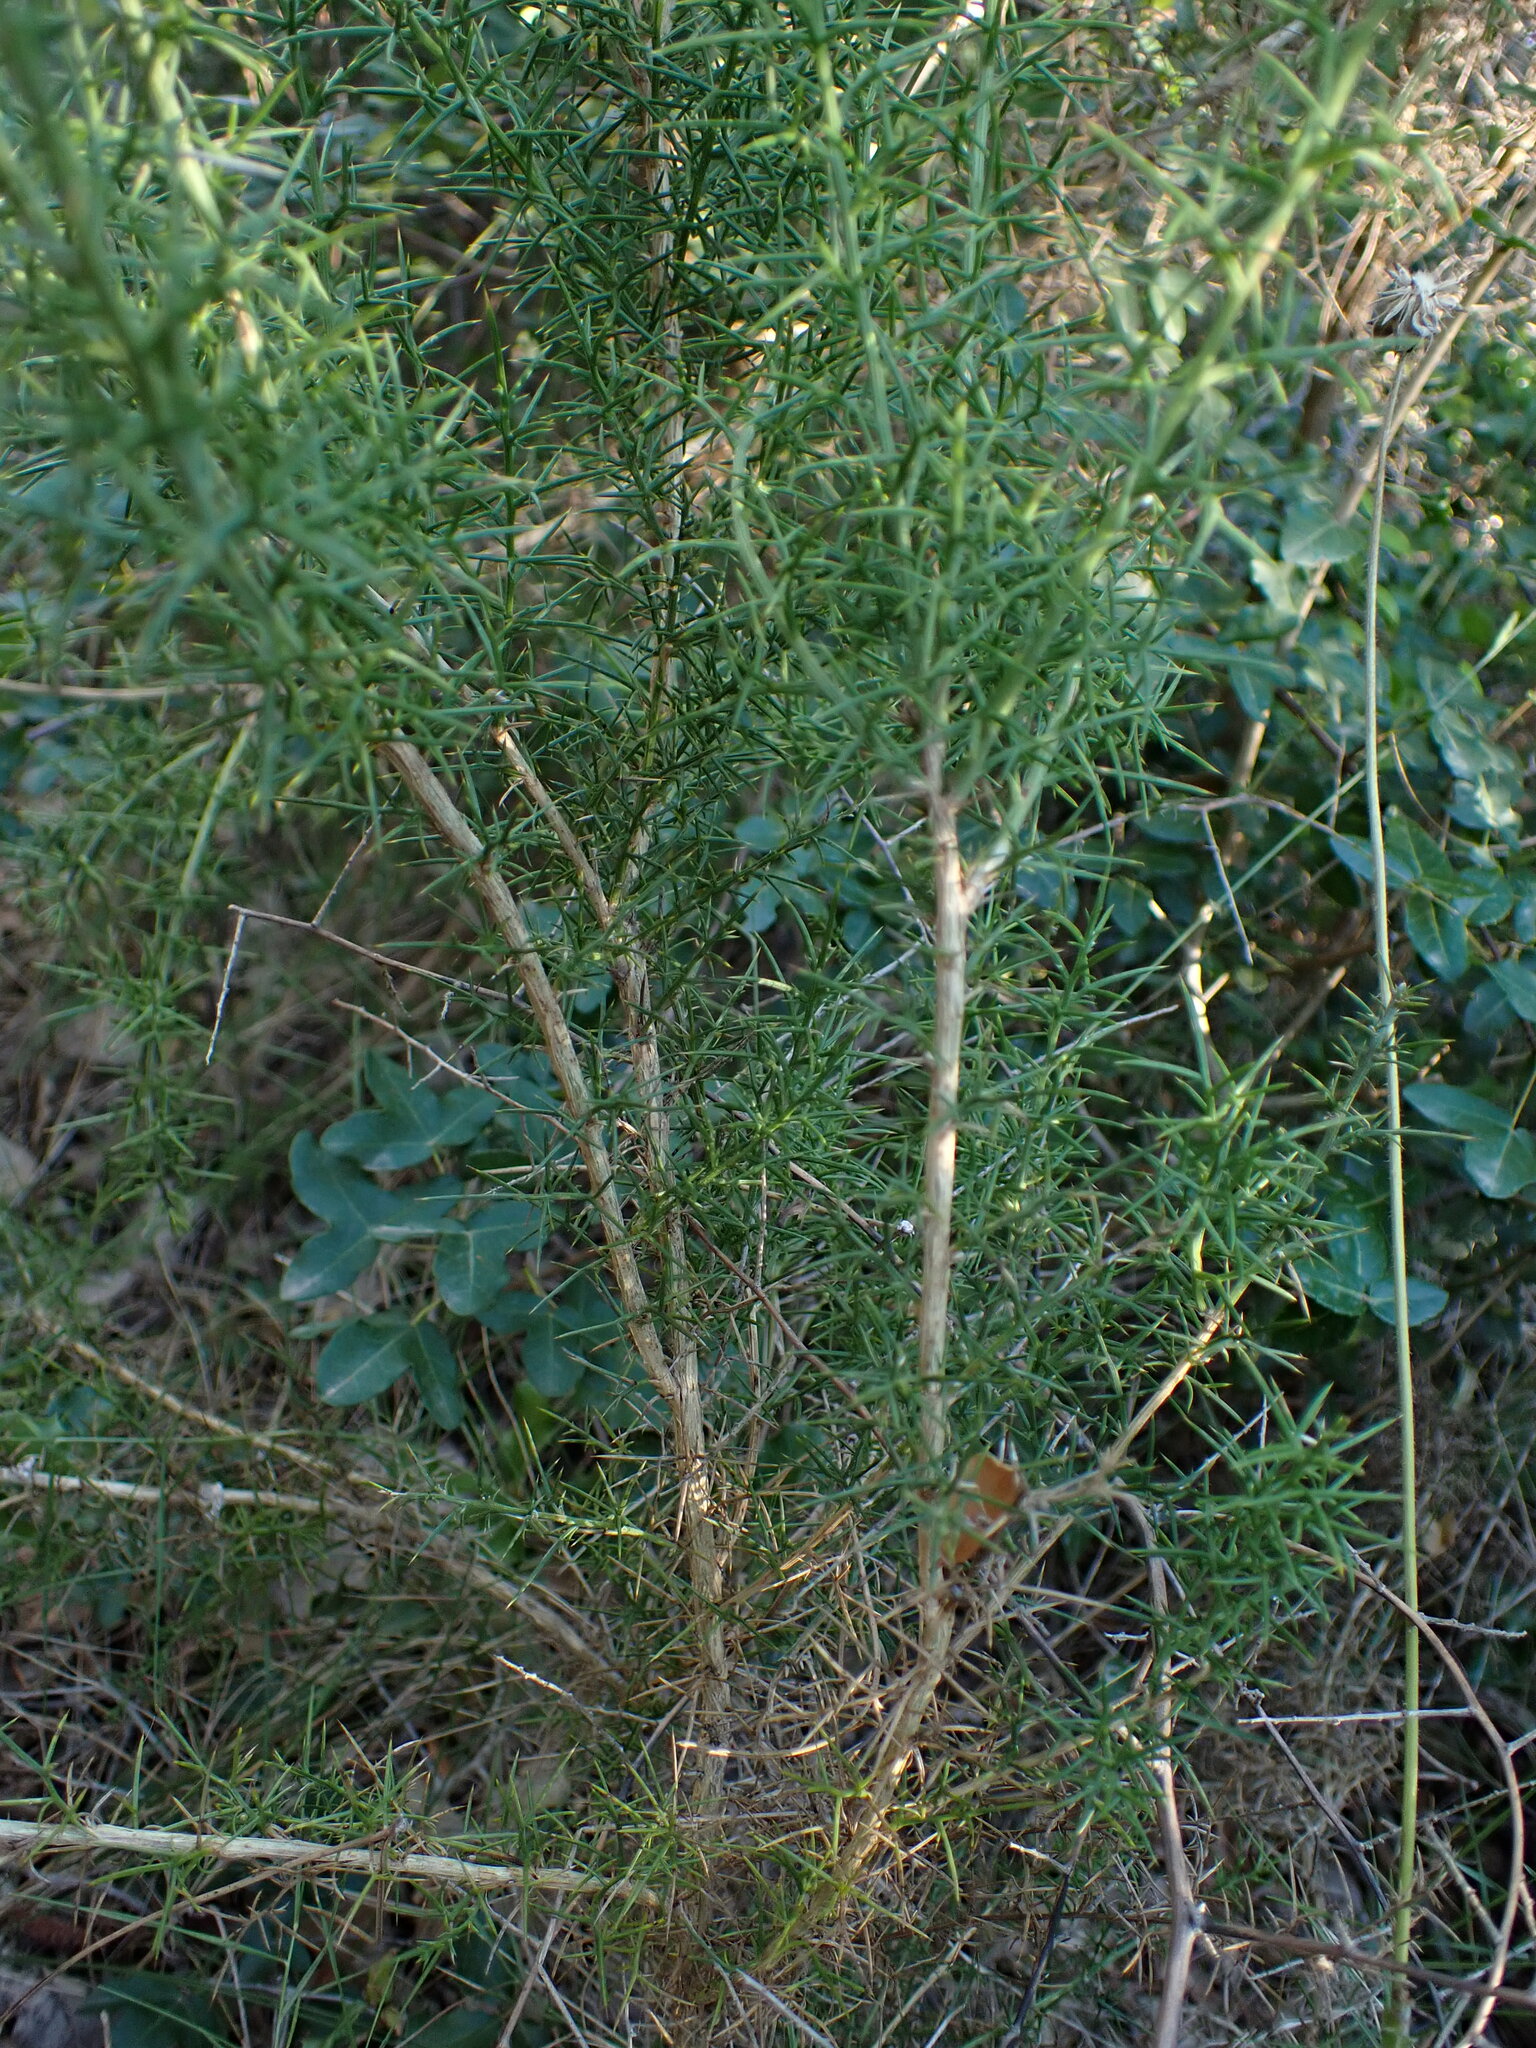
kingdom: Plantae
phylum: Tracheophyta
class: Magnoliopsida
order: Fabales
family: Fabaceae
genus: Ulex
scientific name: Ulex parviflorus
